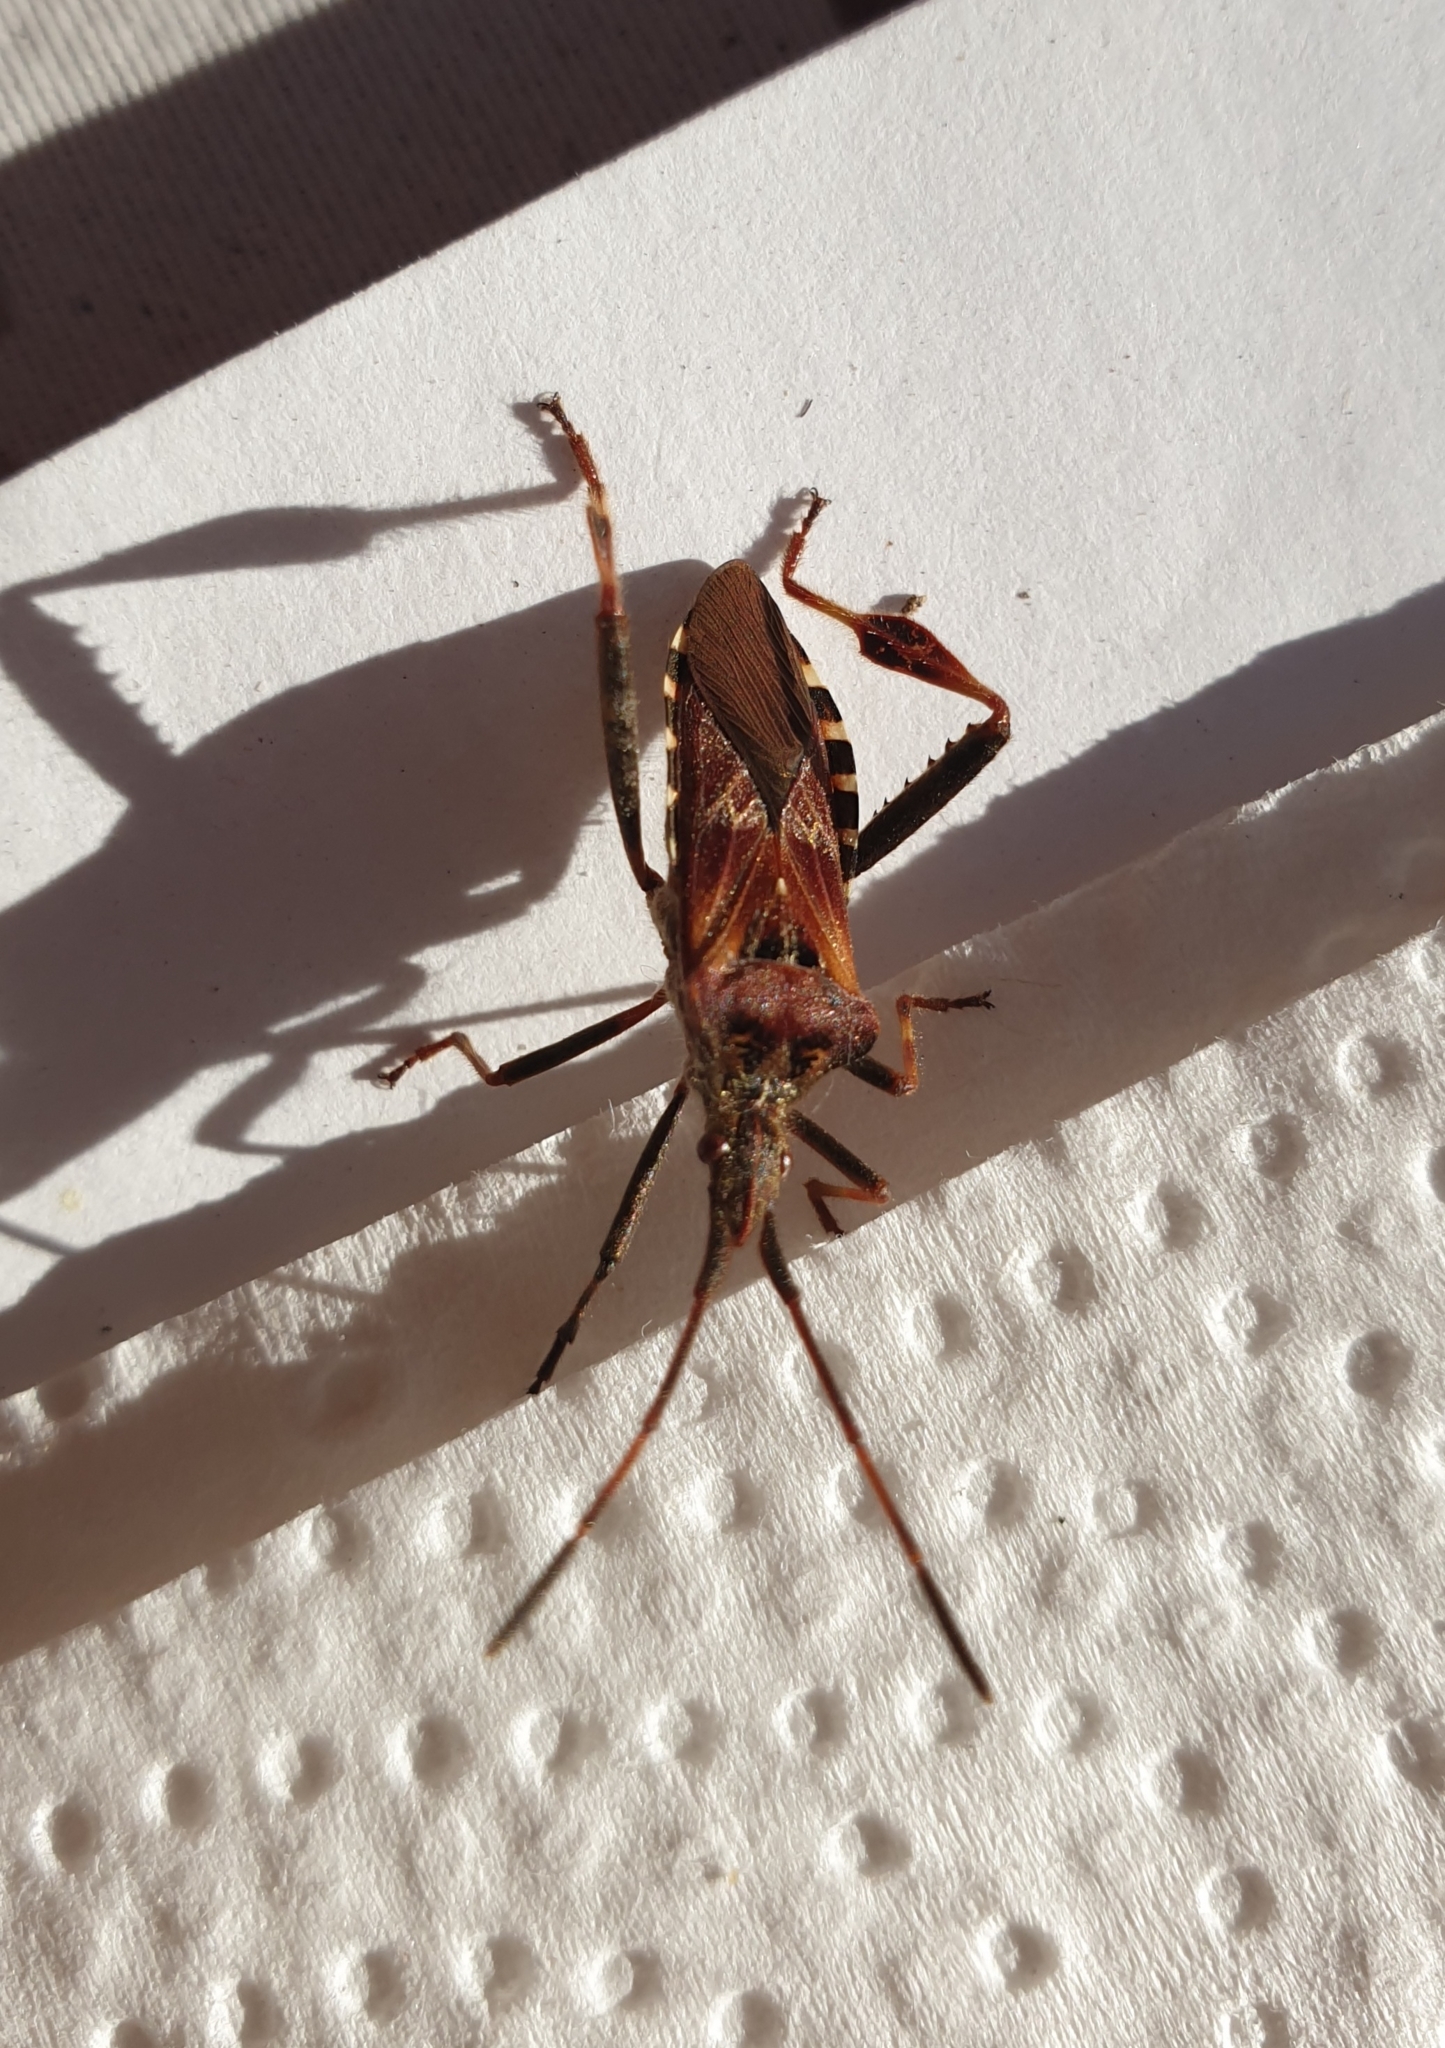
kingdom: Animalia
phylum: Arthropoda
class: Insecta
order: Hemiptera
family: Coreidae
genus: Leptoglossus
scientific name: Leptoglossus occidentalis
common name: Western conifer-seed bug
